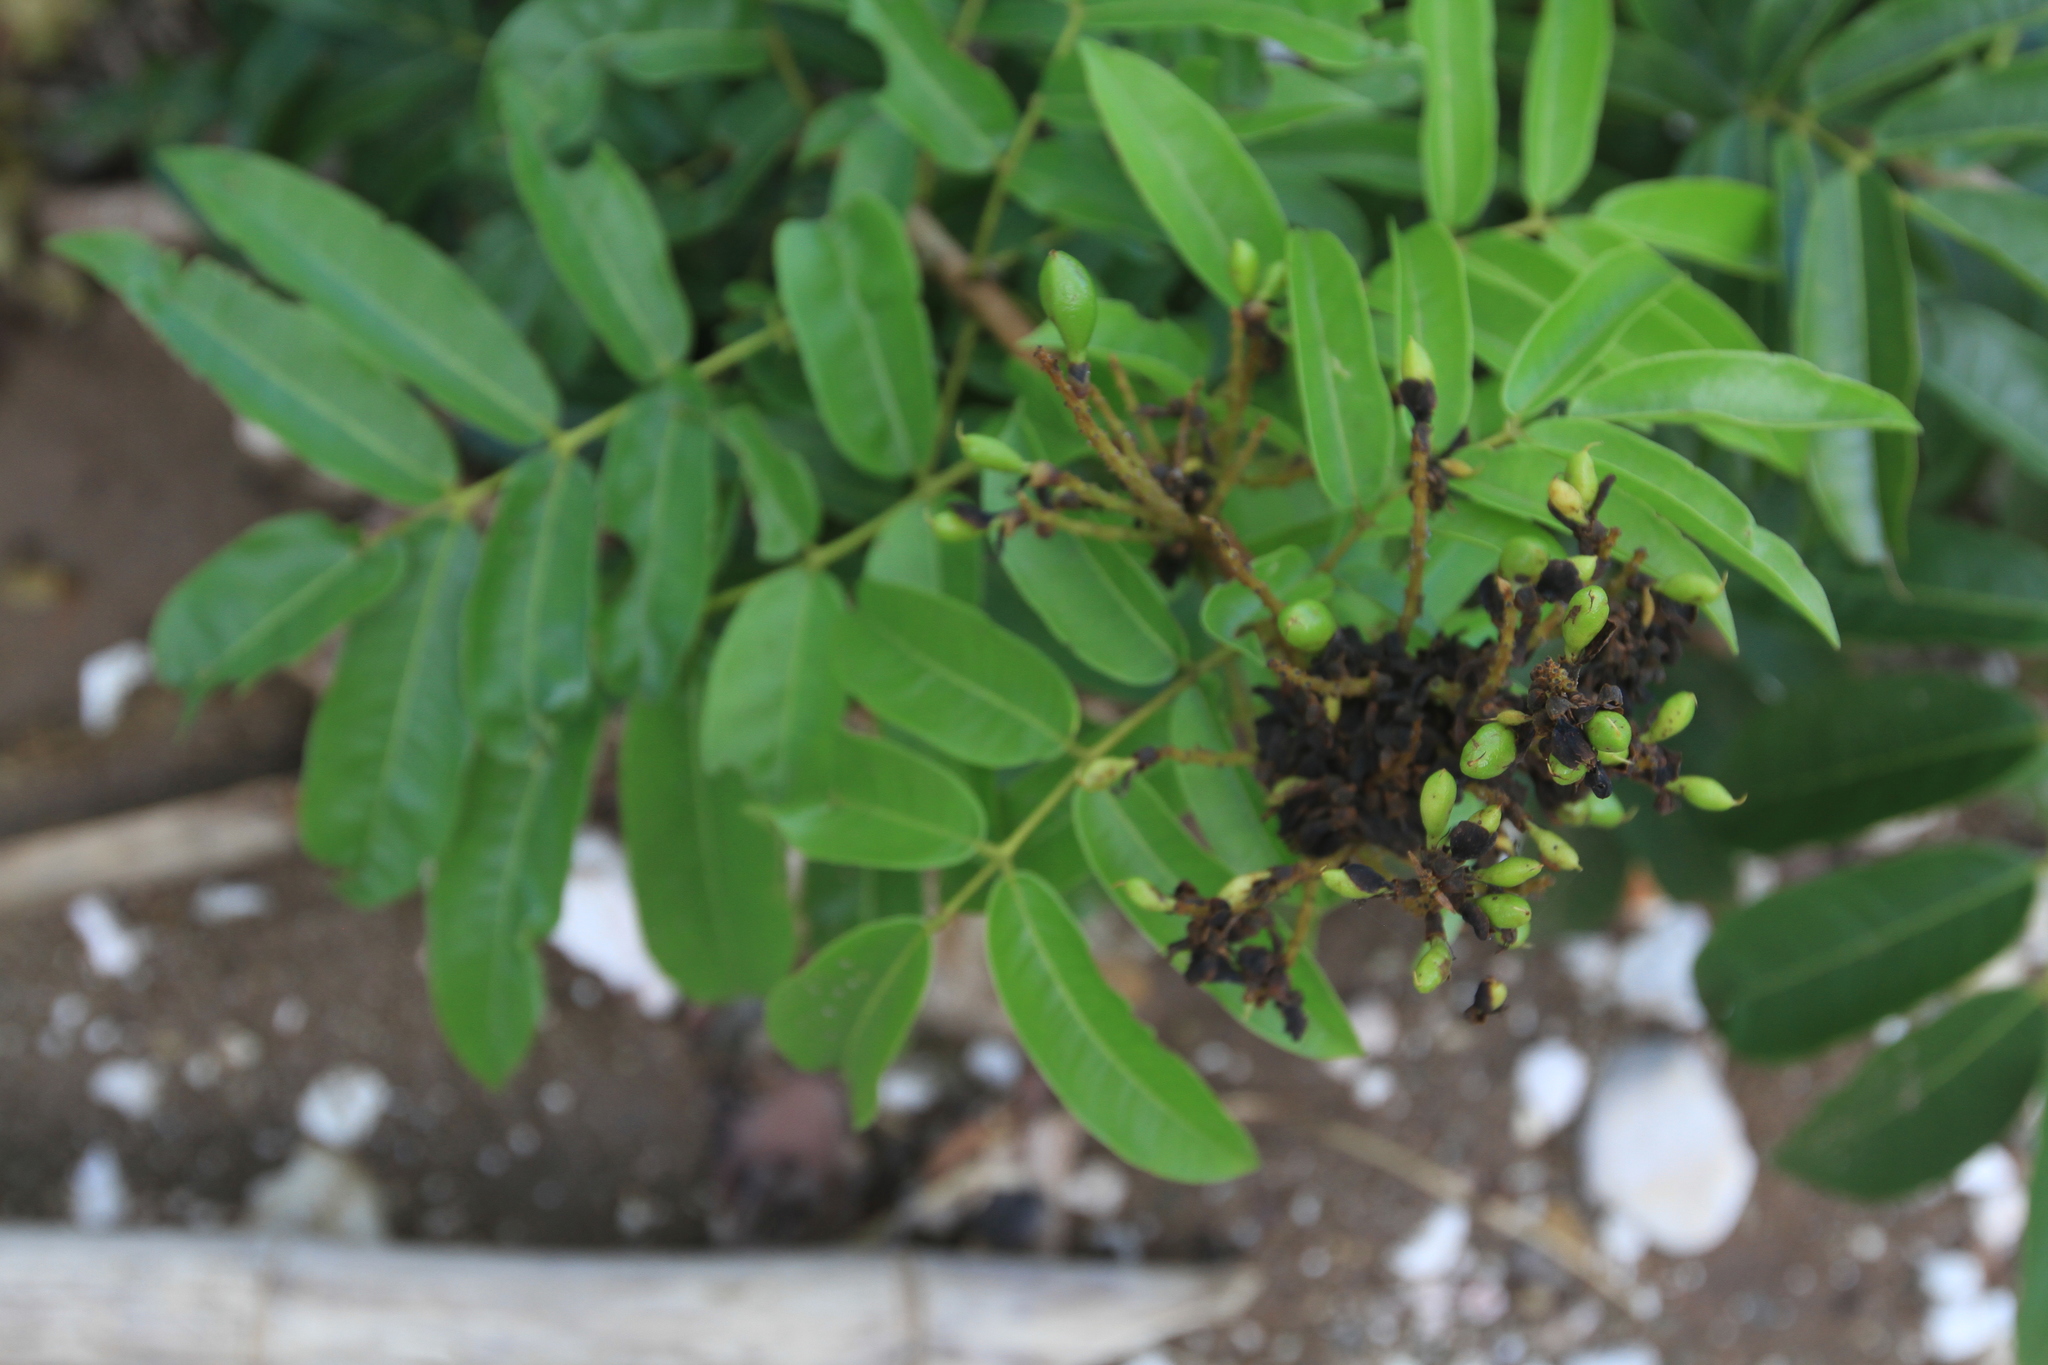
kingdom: Plantae
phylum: Tracheophyta
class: Magnoliopsida
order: Fabales
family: Fabaceae
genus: Andira
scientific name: Andira inermis
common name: Angelin
